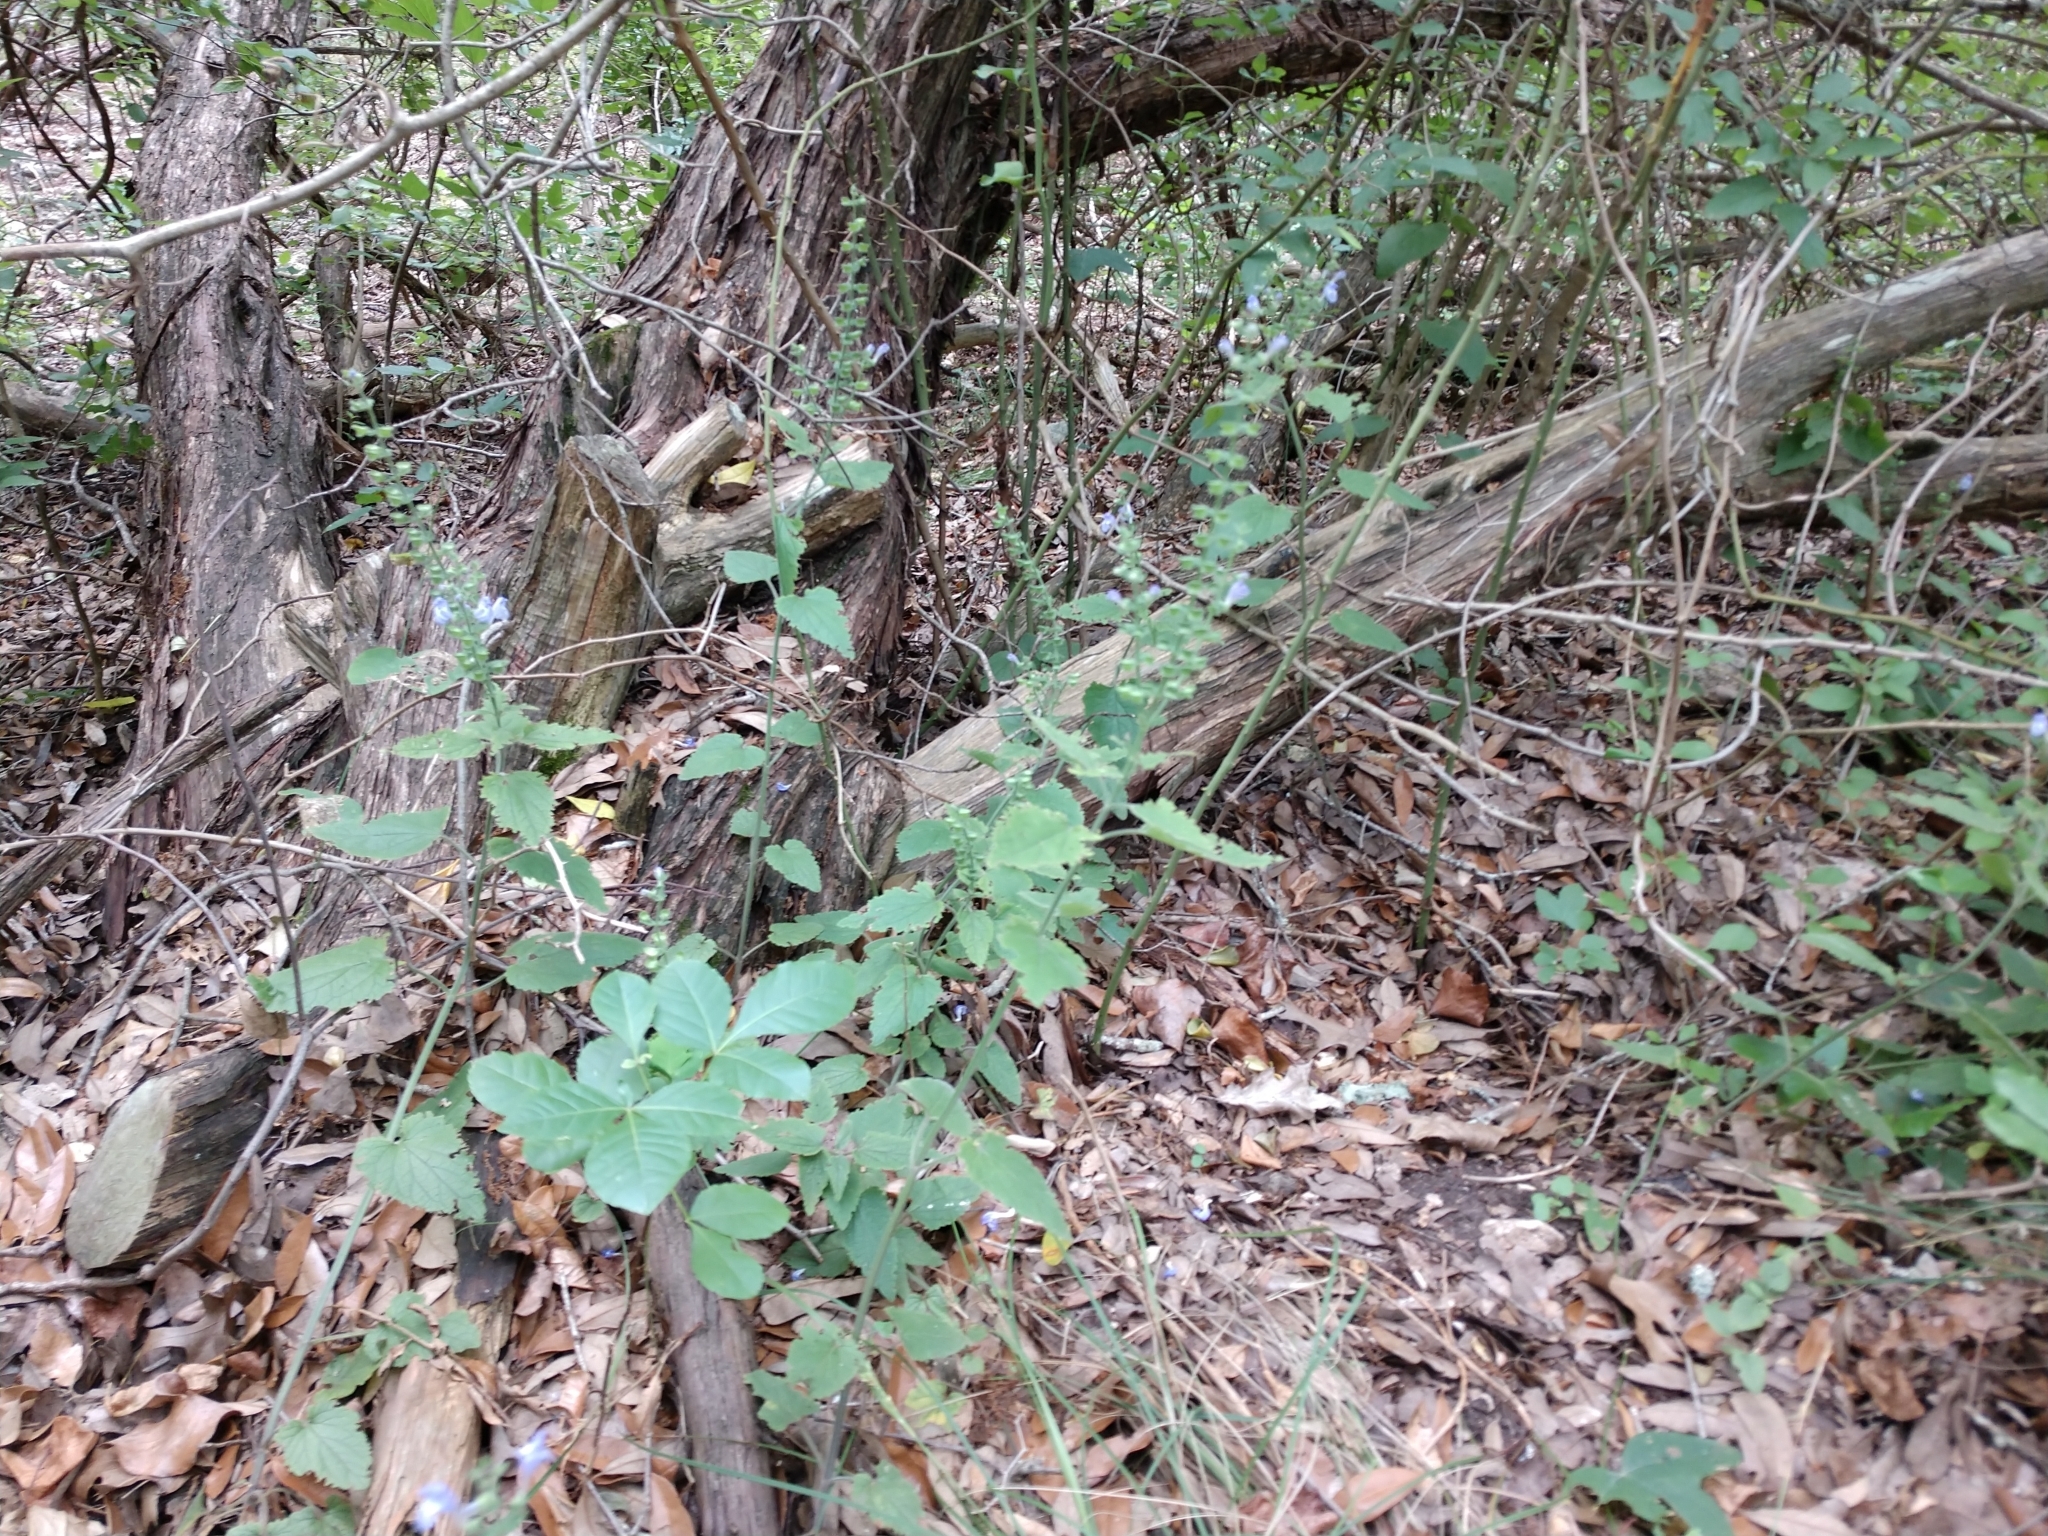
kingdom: Plantae
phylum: Tracheophyta
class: Magnoliopsida
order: Lamiales
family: Lamiaceae
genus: Scutellaria
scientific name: Scutellaria ovata
